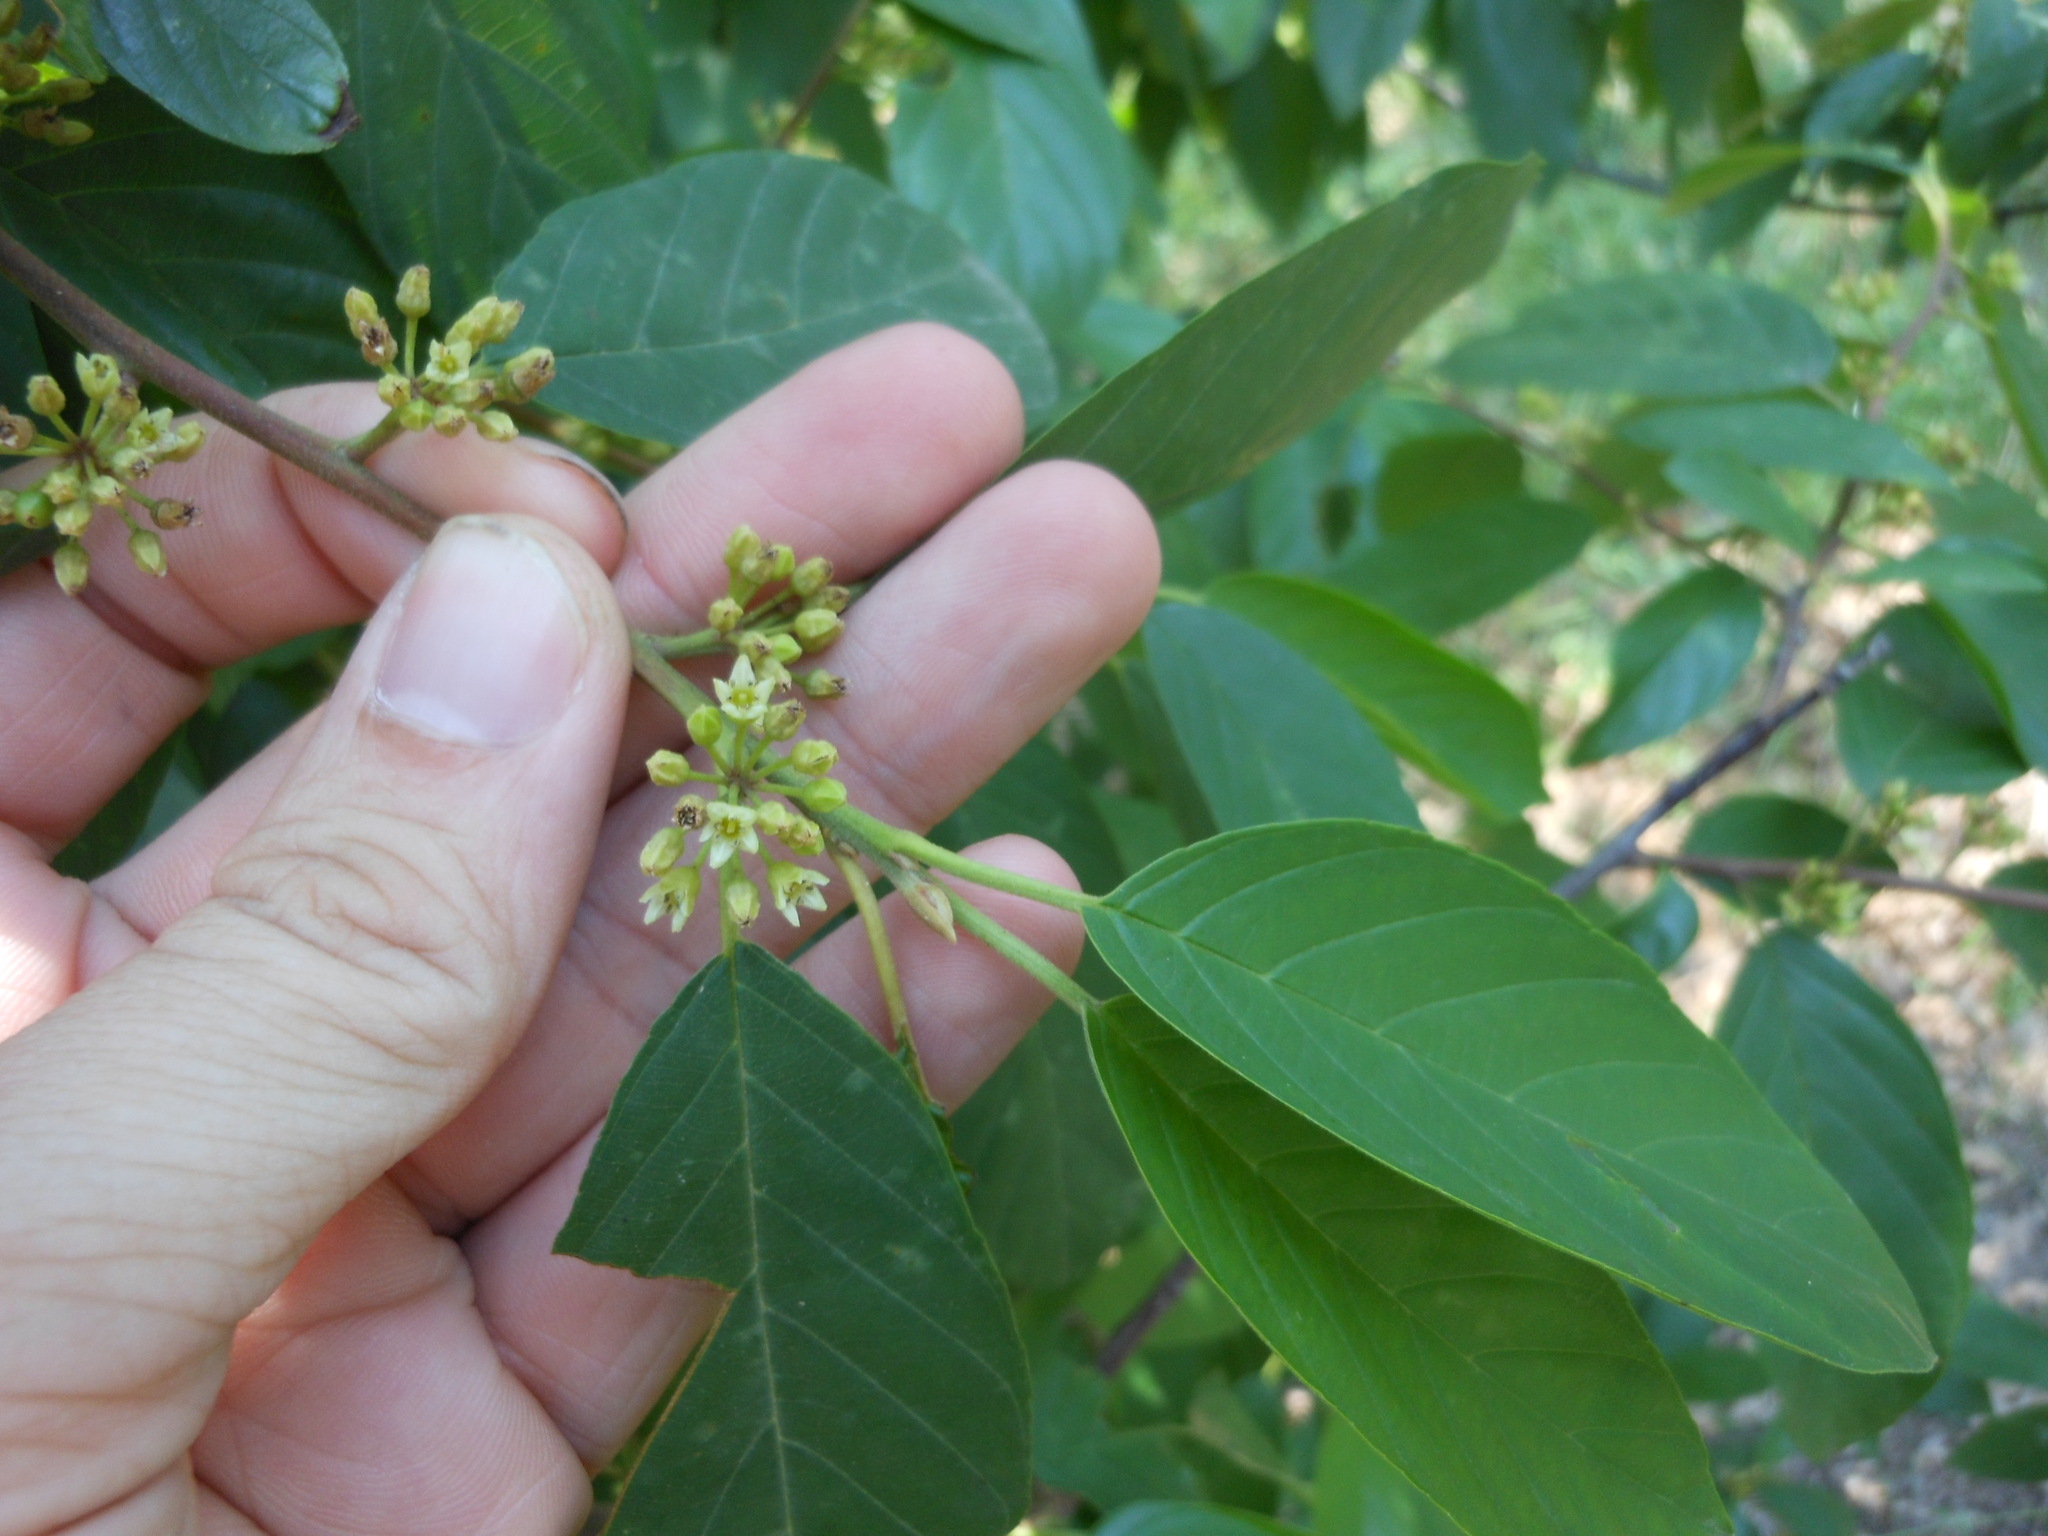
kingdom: Plantae
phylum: Tracheophyta
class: Magnoliopsida
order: Rosales
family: Rhamnaceae
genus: Frangula
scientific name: Frangula caroliniana
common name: Carolina buckthorn
